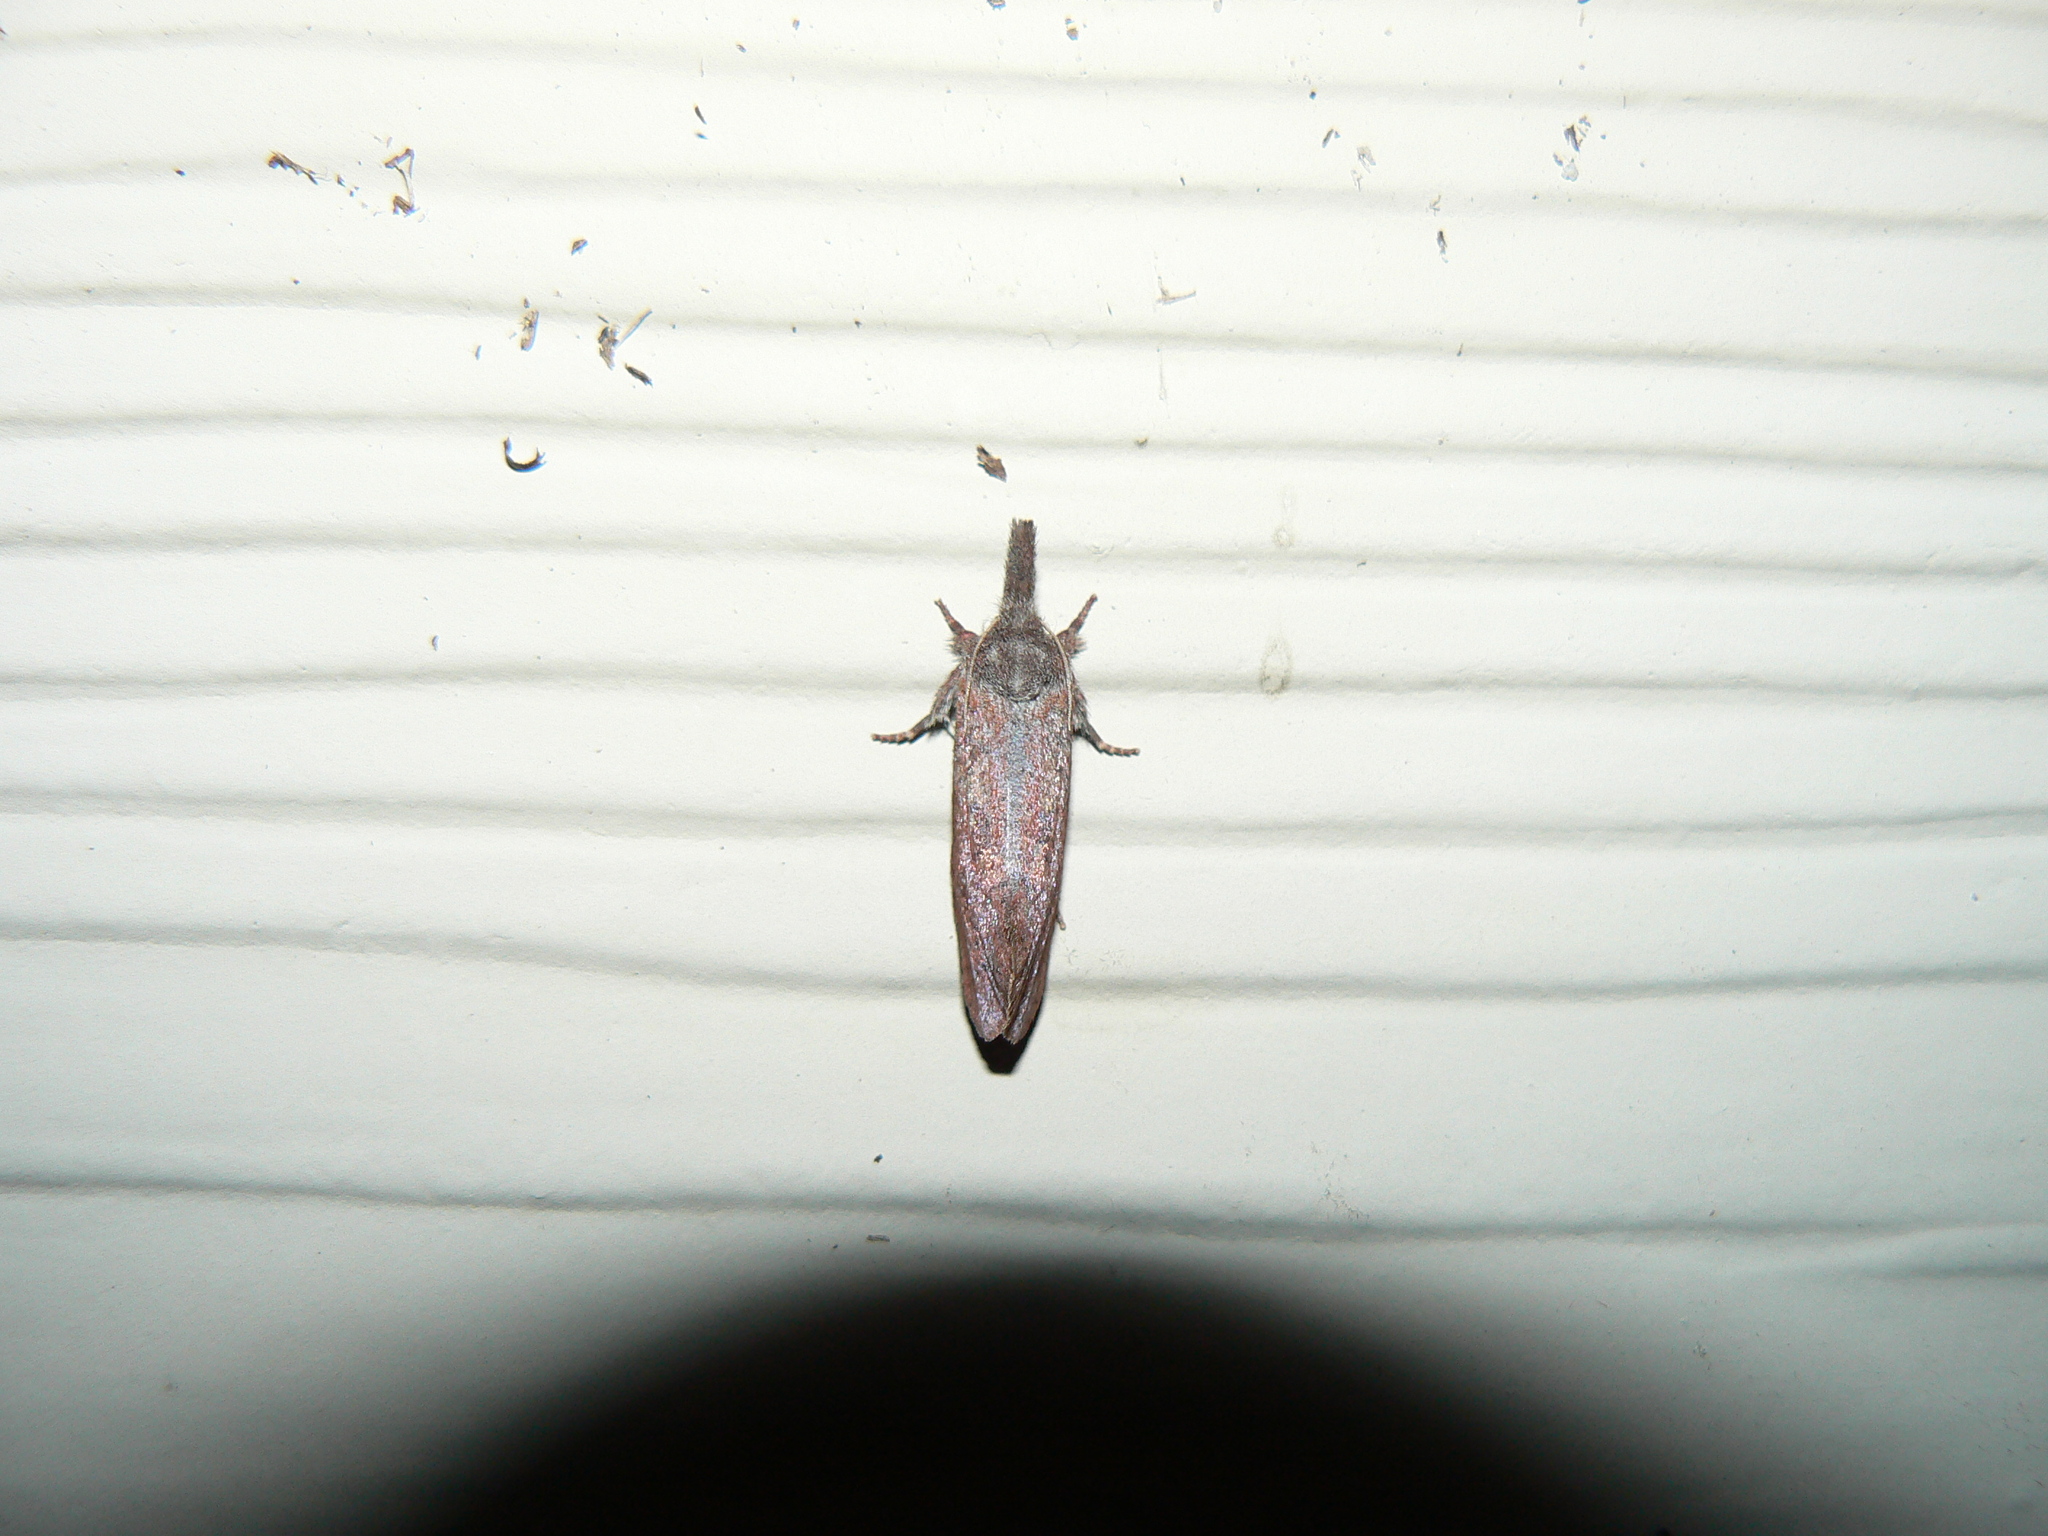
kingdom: Animalia
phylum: Arthropoda
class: Insecta
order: Lepidoptera
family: Tineidae
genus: Acrolophus
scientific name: Acrolophus plumifrontella
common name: Eastern grass tubeworm moth
